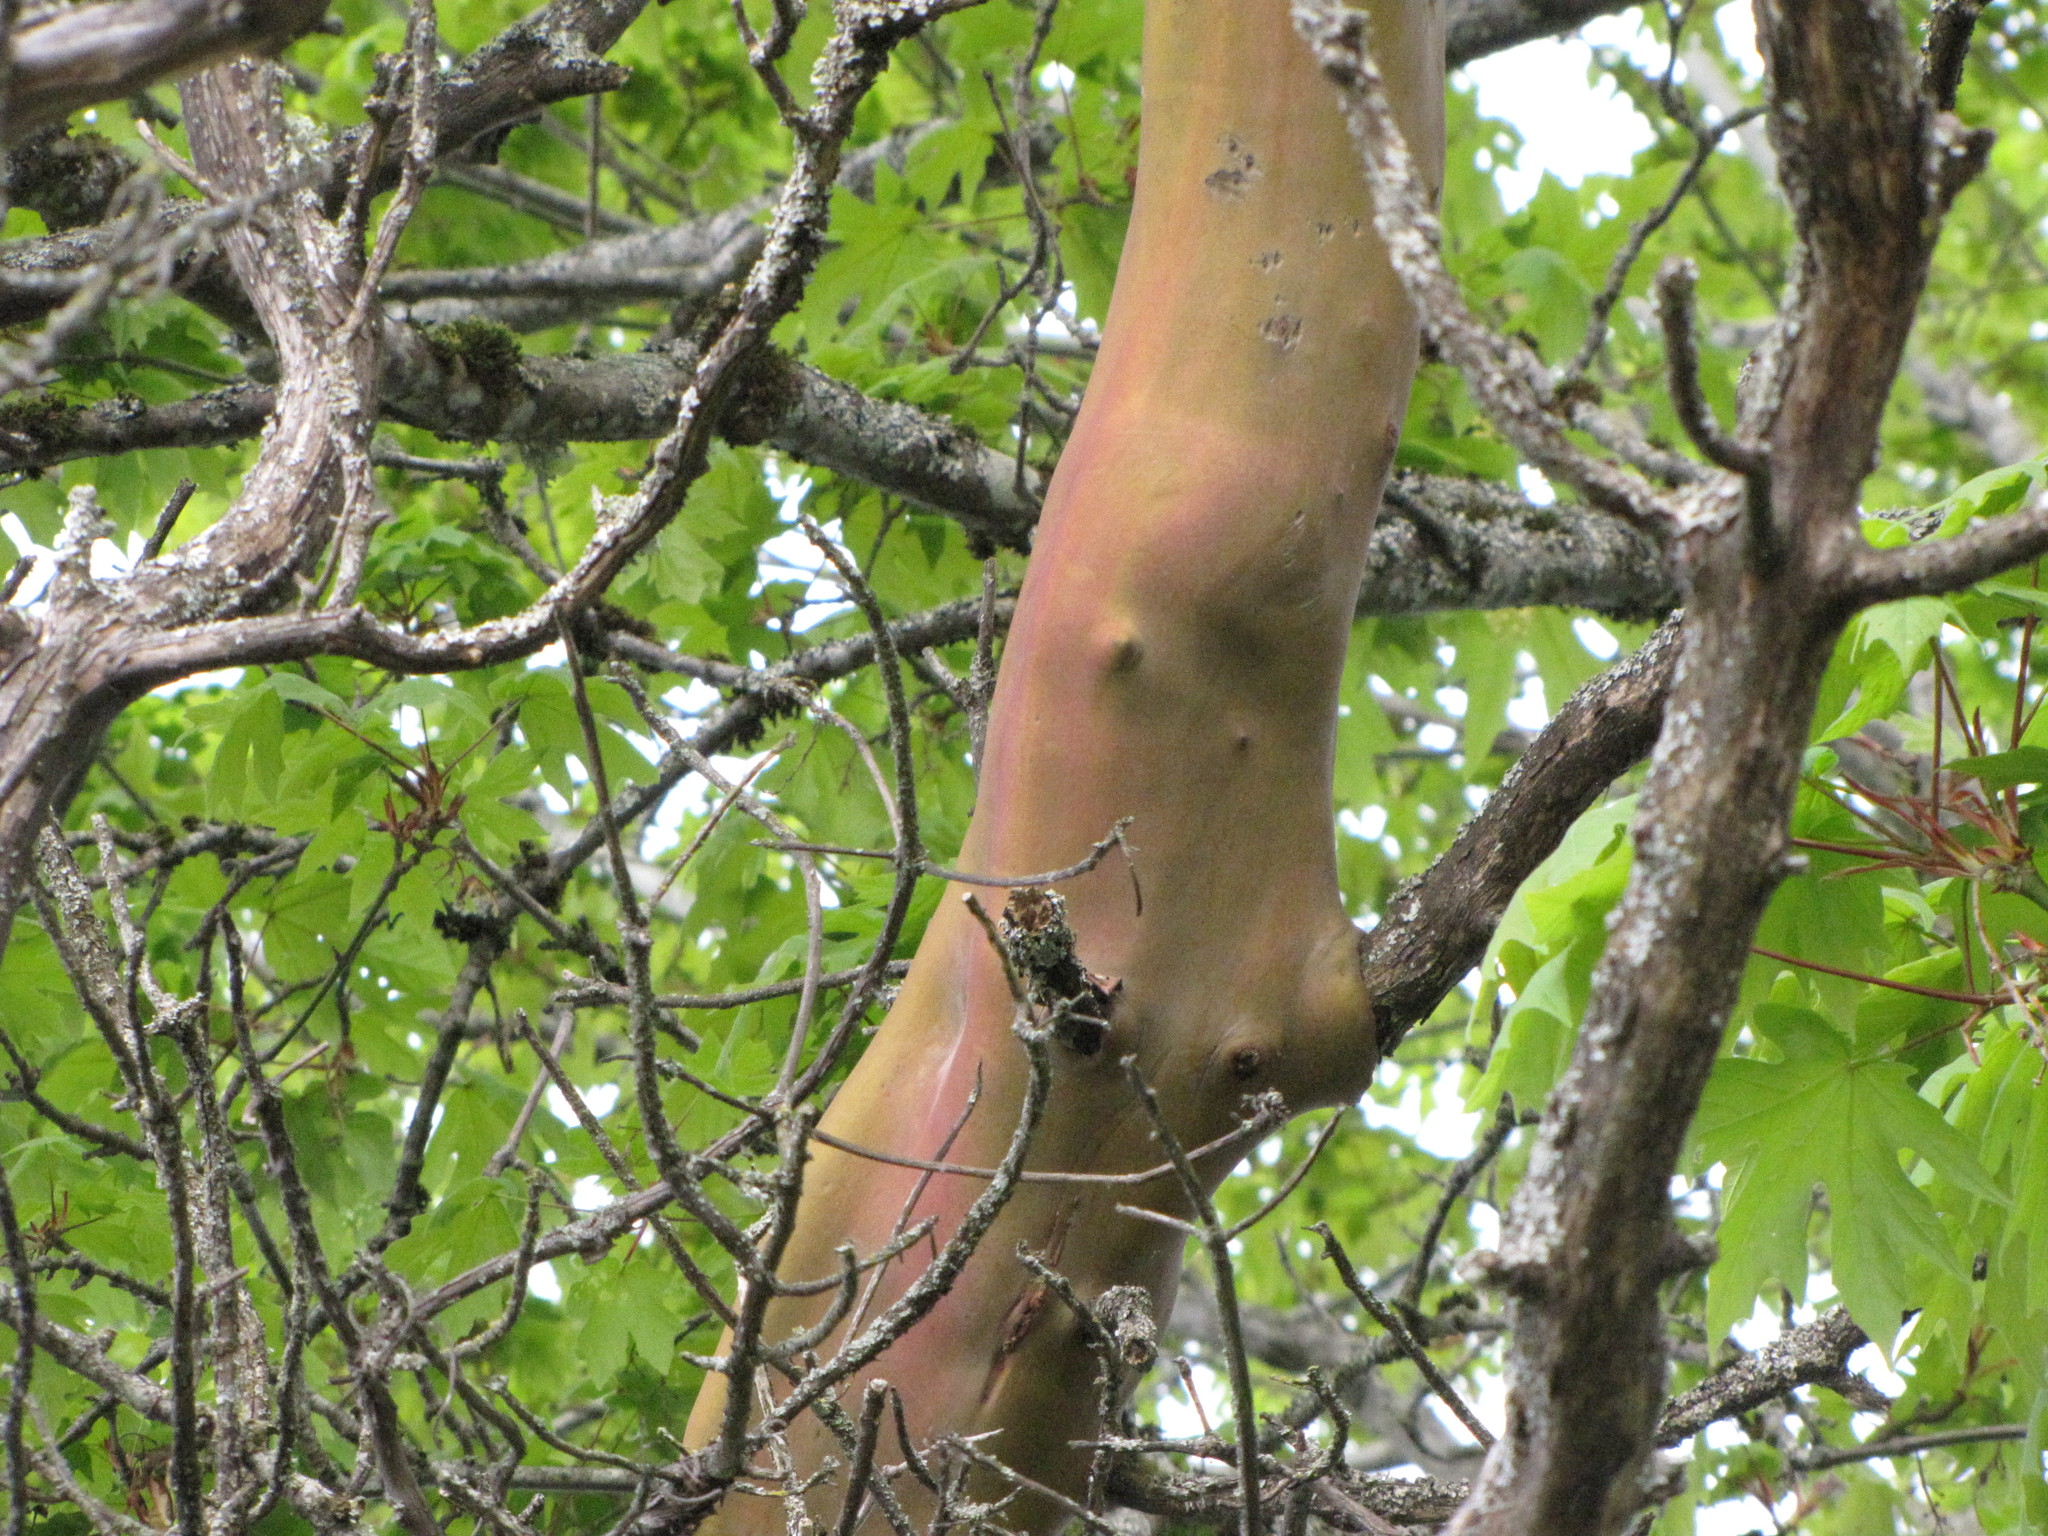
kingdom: Plantae
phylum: Tracheophyta
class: Magnoliopsida
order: Ericales
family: Ericaceae
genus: Arbutus
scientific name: Arbutus menziesii
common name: Pacific madrone
